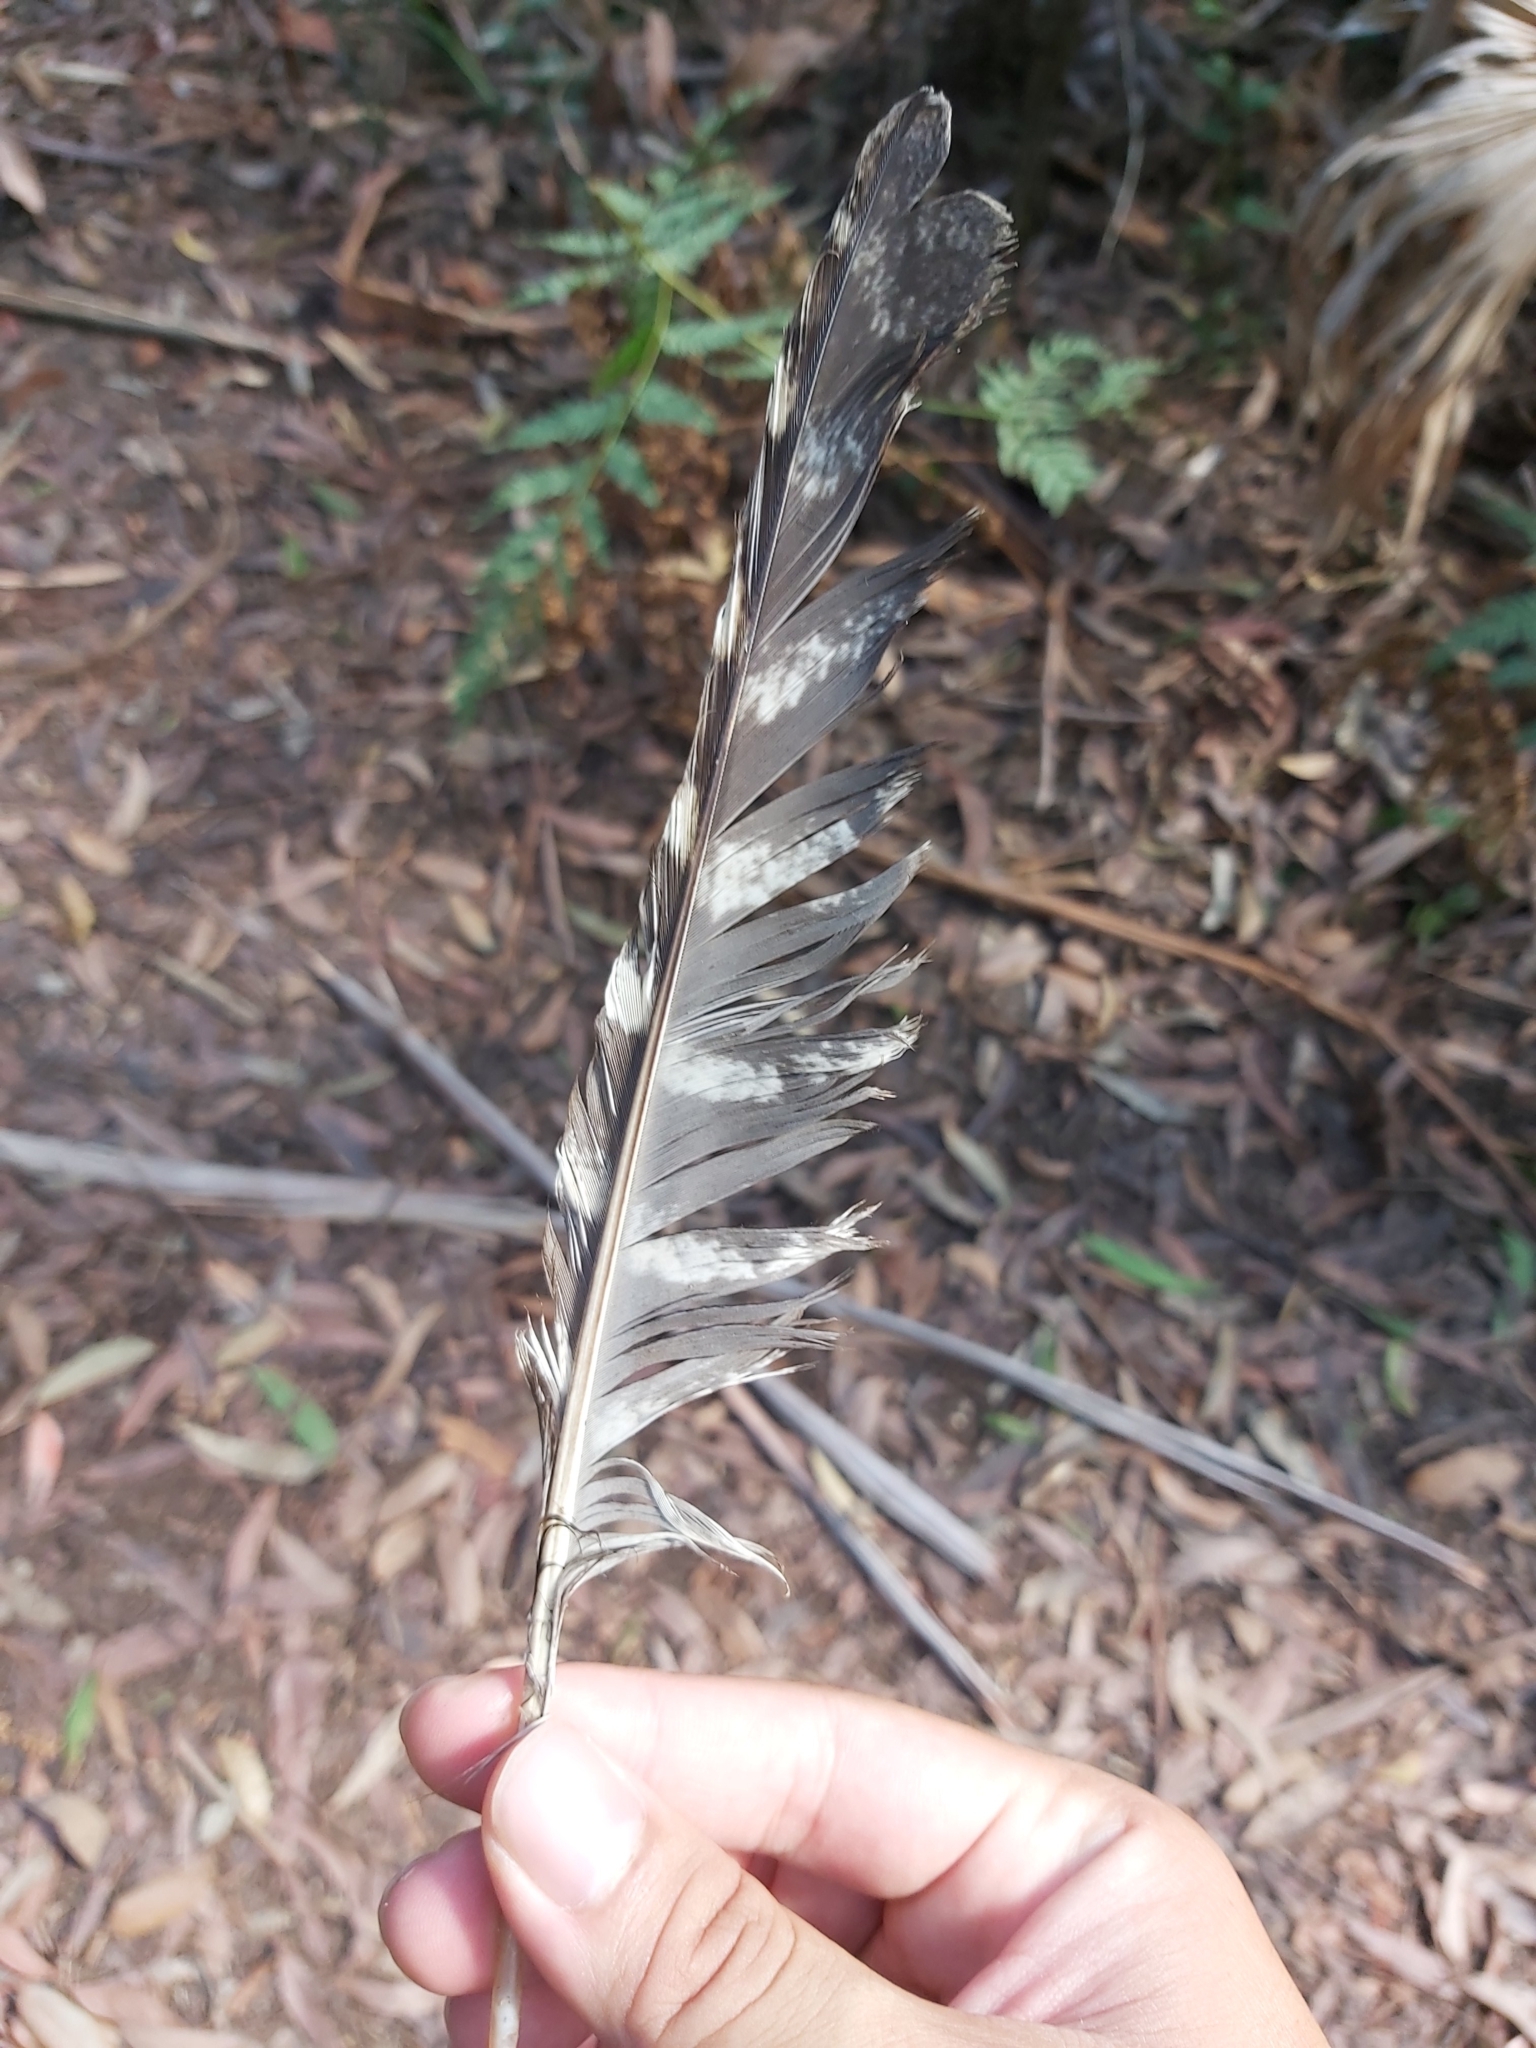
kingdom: Animalia
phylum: Chordata
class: Aves
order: Caprimulgiformes
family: Podargidae
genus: Podargus
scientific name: Podargus strigoides
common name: Tawny frogmouth
